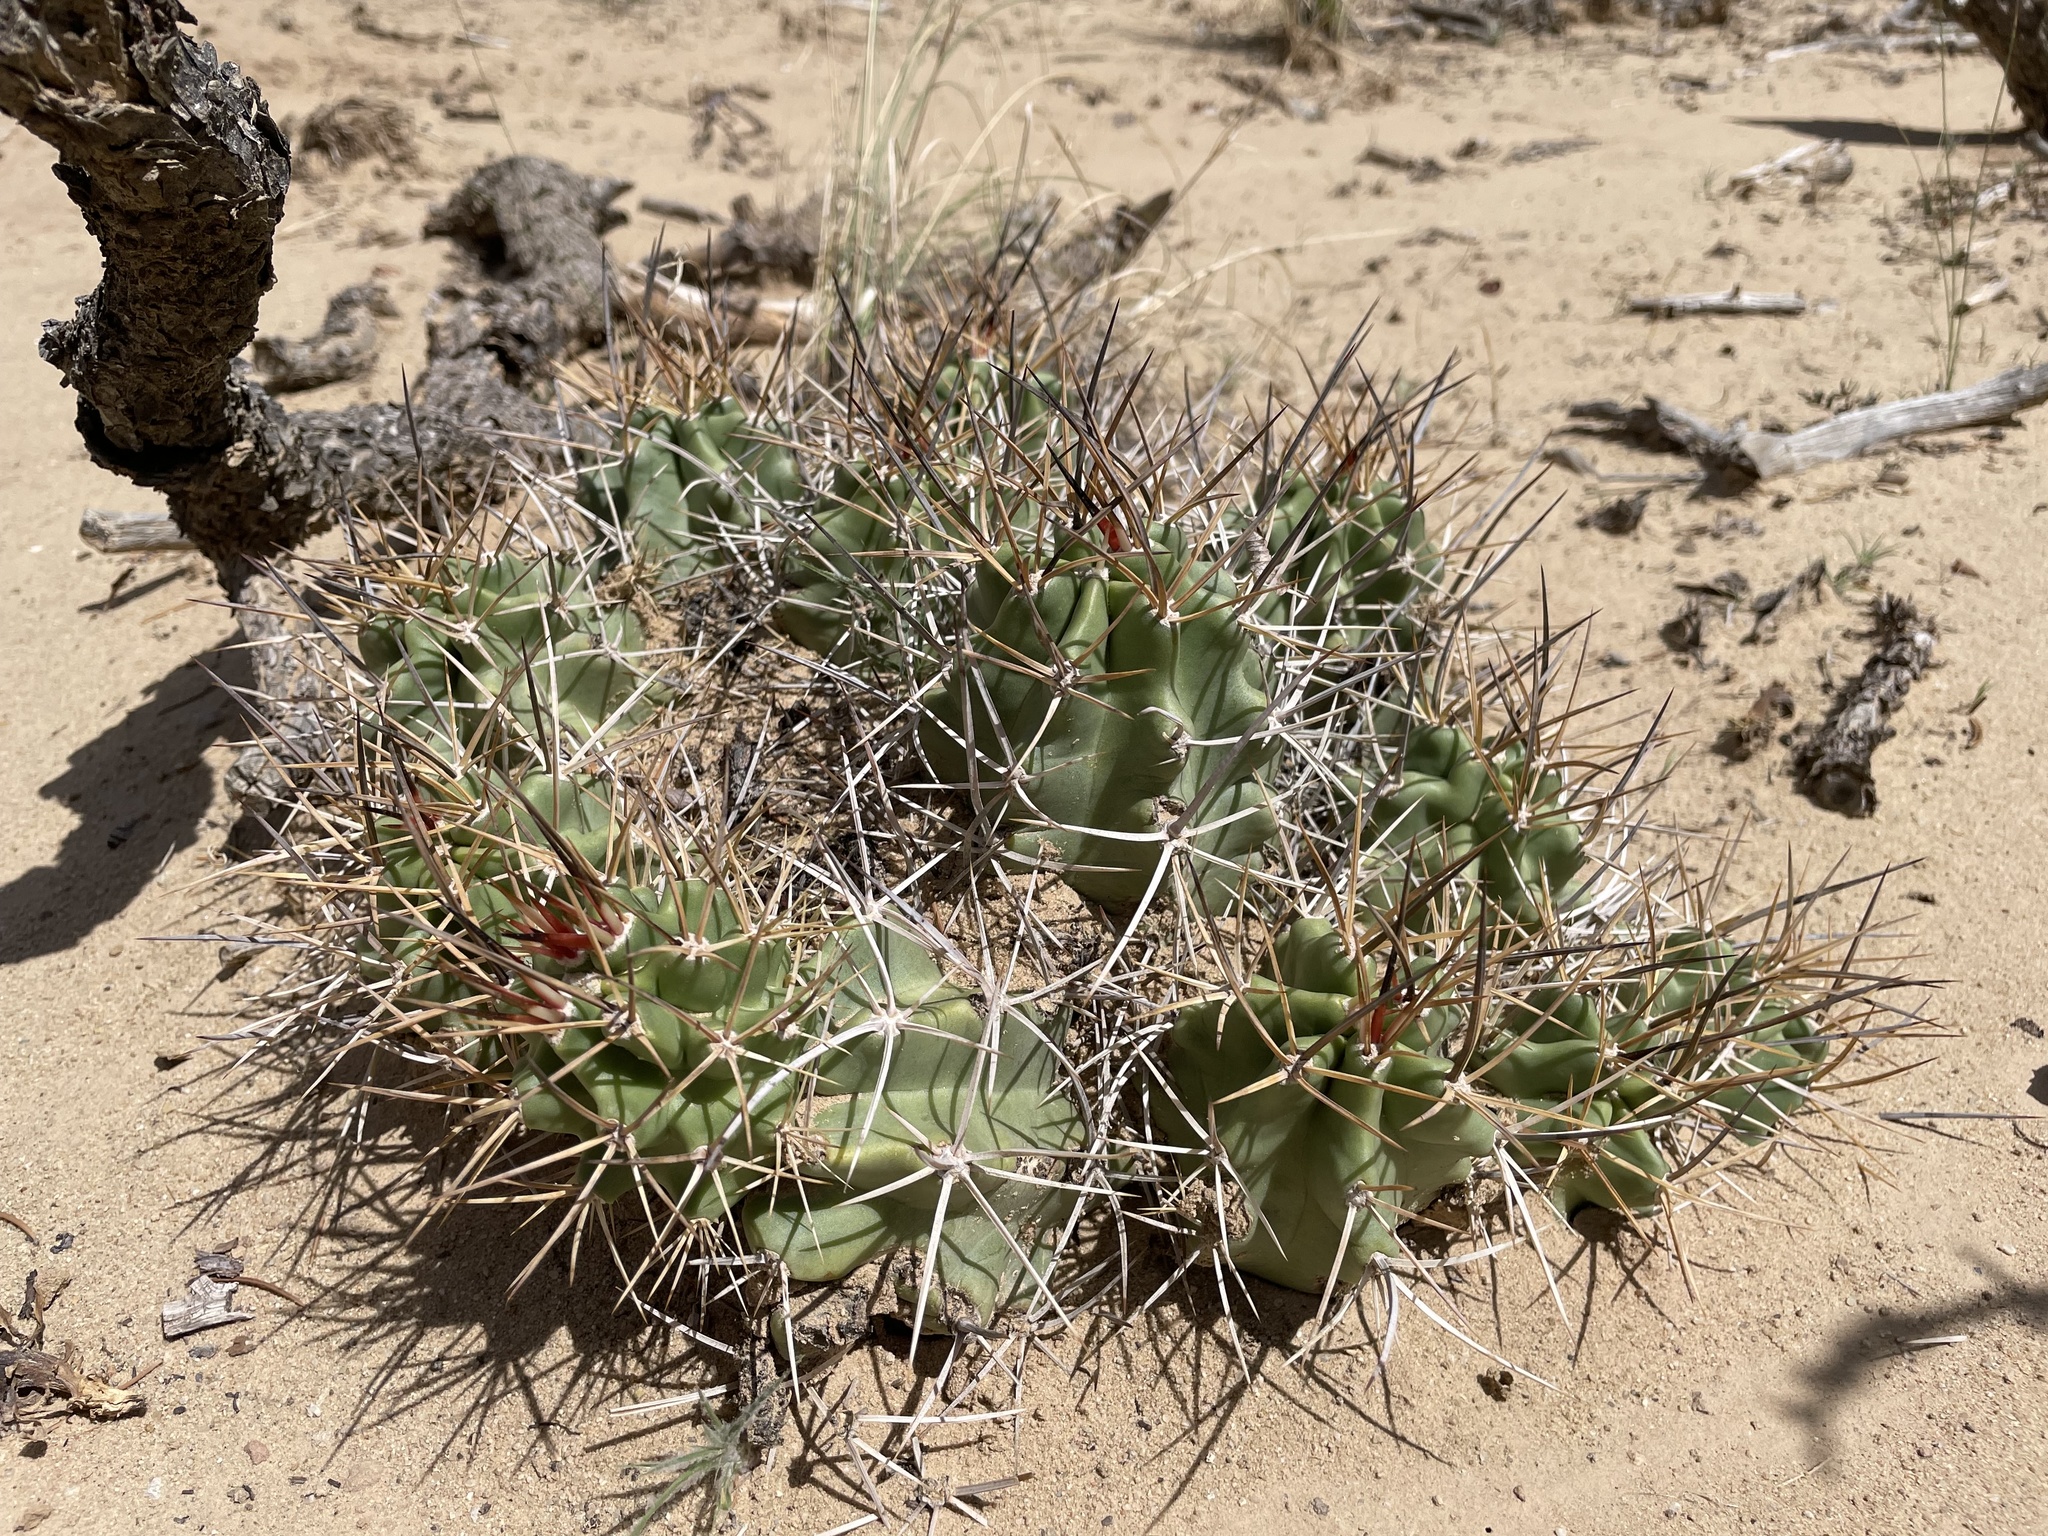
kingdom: Plantae
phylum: Tracheophyta
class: Magnoliopsida
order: Caryophyllales
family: Cactaceae
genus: Echinocereus
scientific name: Echinocereus triglochidiatus
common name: Claretcup hedgehog
